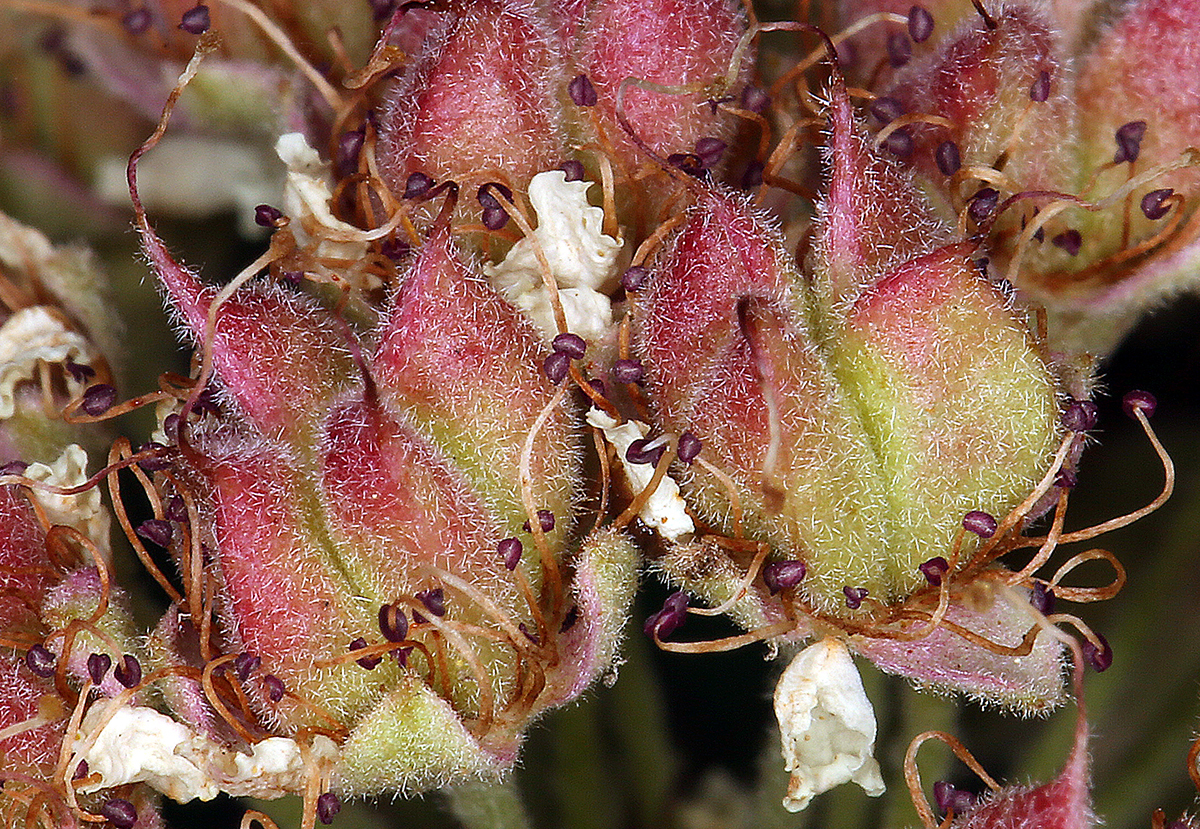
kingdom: Plantae
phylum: Tracheophyta
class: Magnoliopsida
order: Rosales
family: Rosaceae
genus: Physocarpus
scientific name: Physocarpus capitatus
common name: Pacific ninebark
